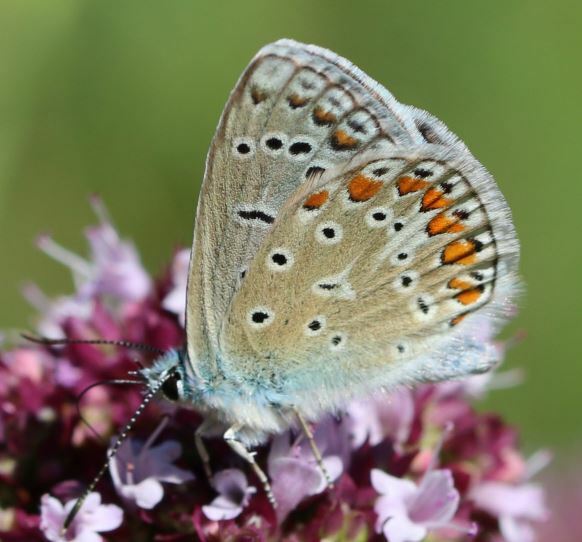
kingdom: Animalia
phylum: Arthropoda
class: Insecta
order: Lepidoptera
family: Lycaenidae
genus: Polyommatus
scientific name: Polyommatus icarus
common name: Common blue
